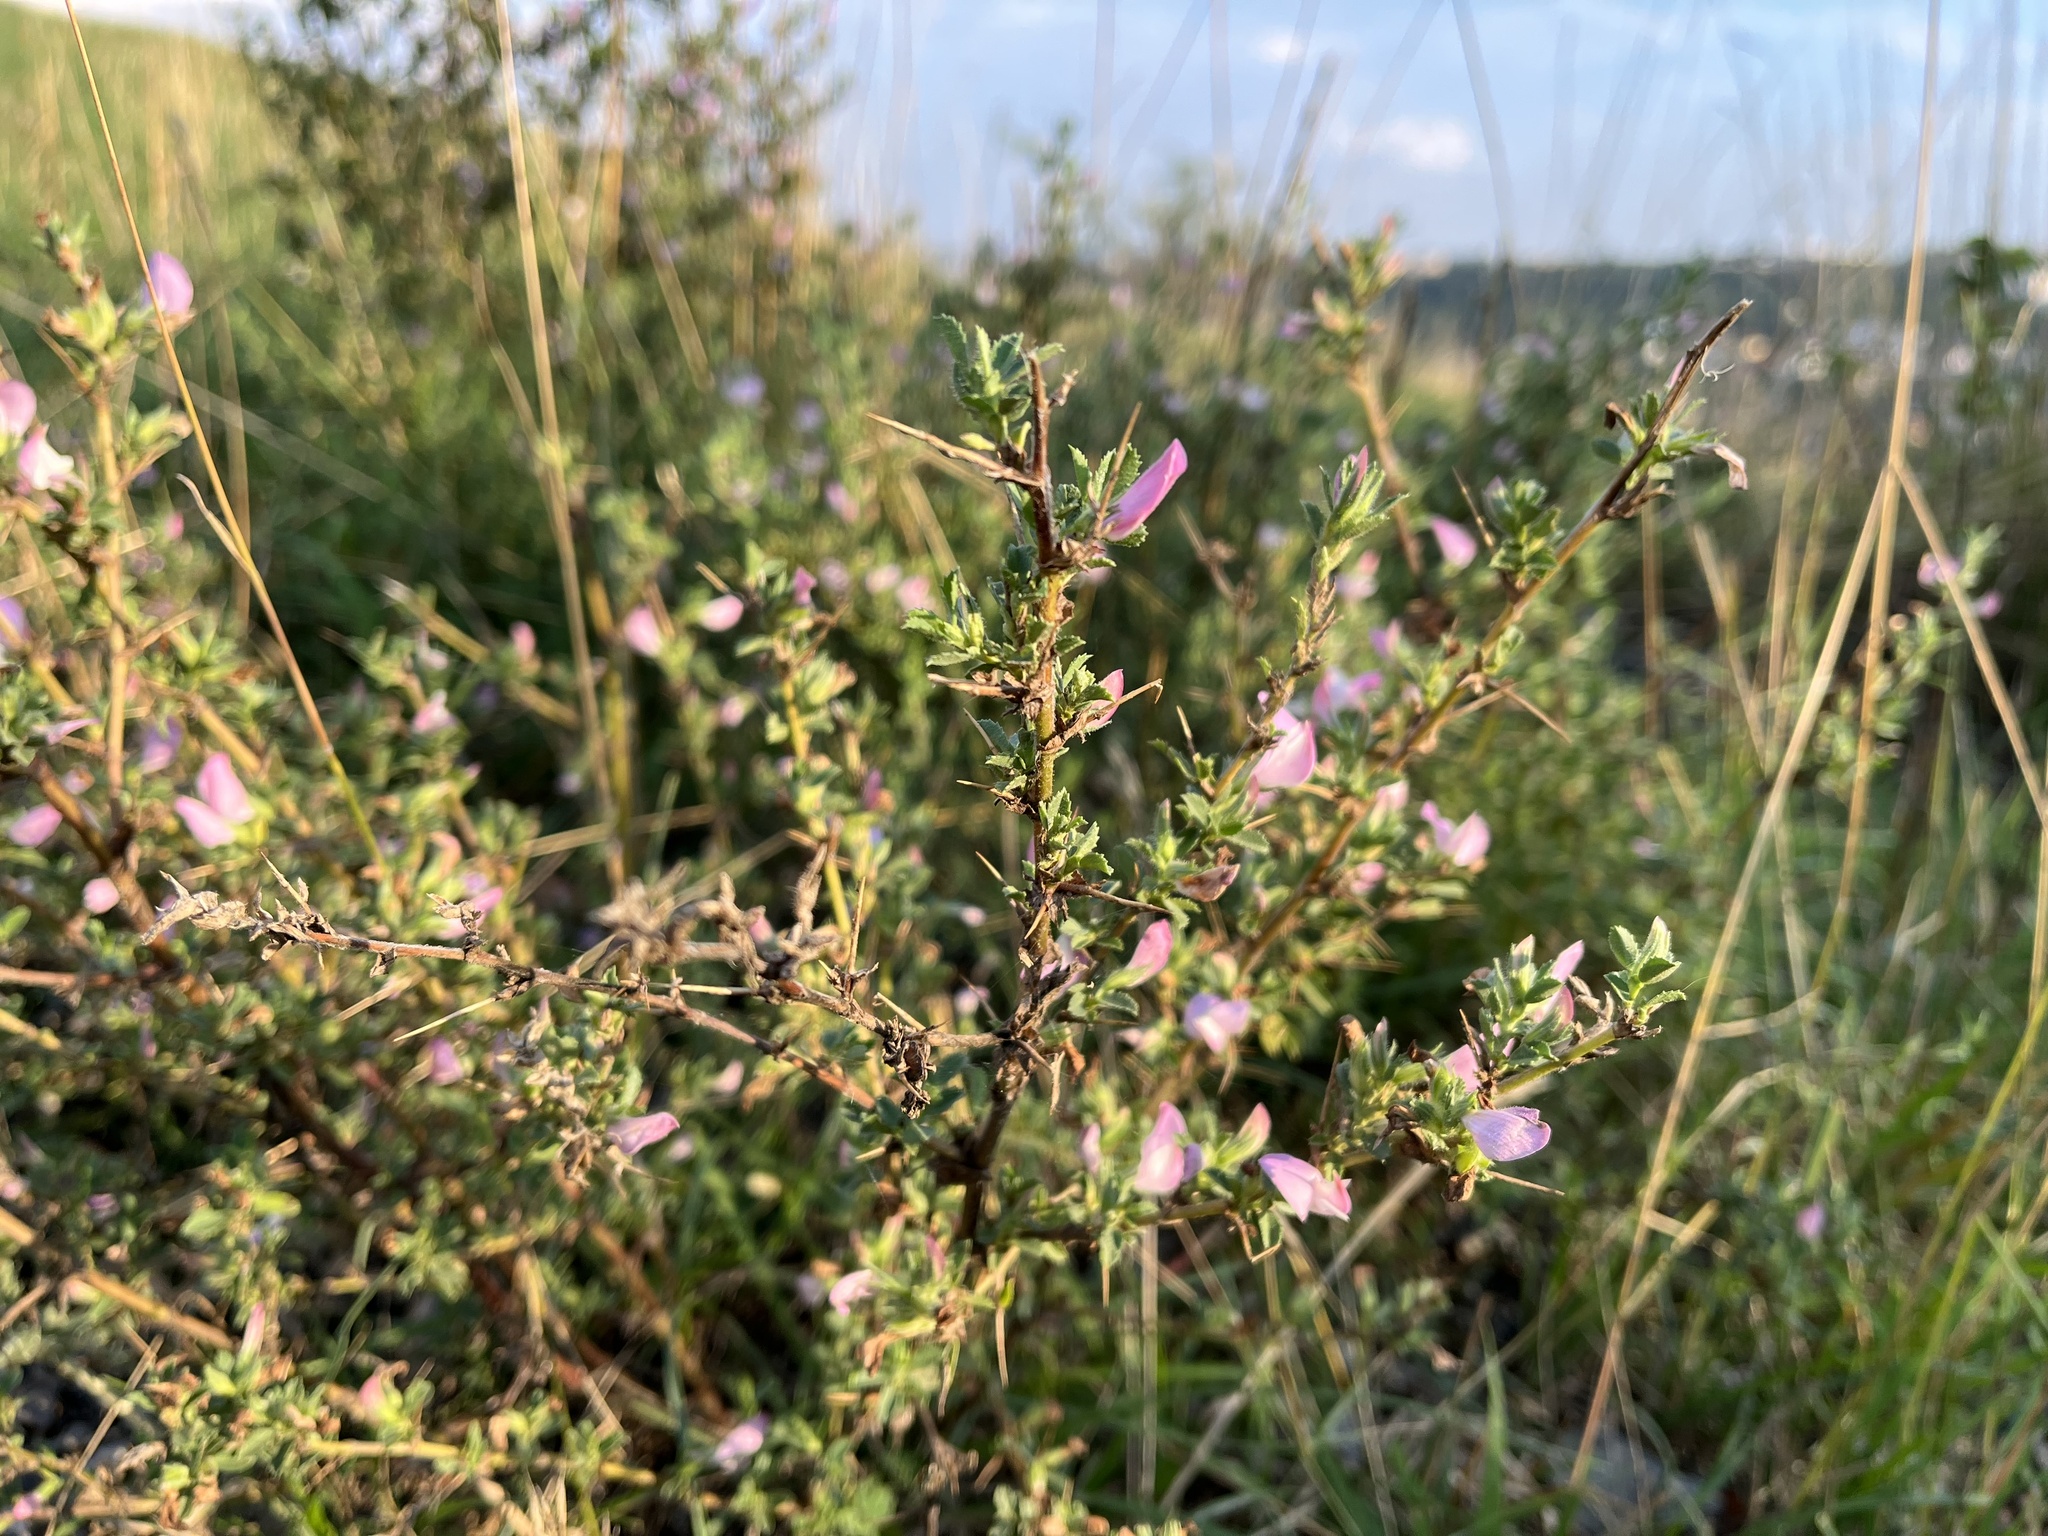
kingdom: Plantae
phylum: Tracheophyta
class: Magnoliopsida
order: Fabales
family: Fabaceae
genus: Ononis
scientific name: Ononis spinosa
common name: Spiny restharrow
